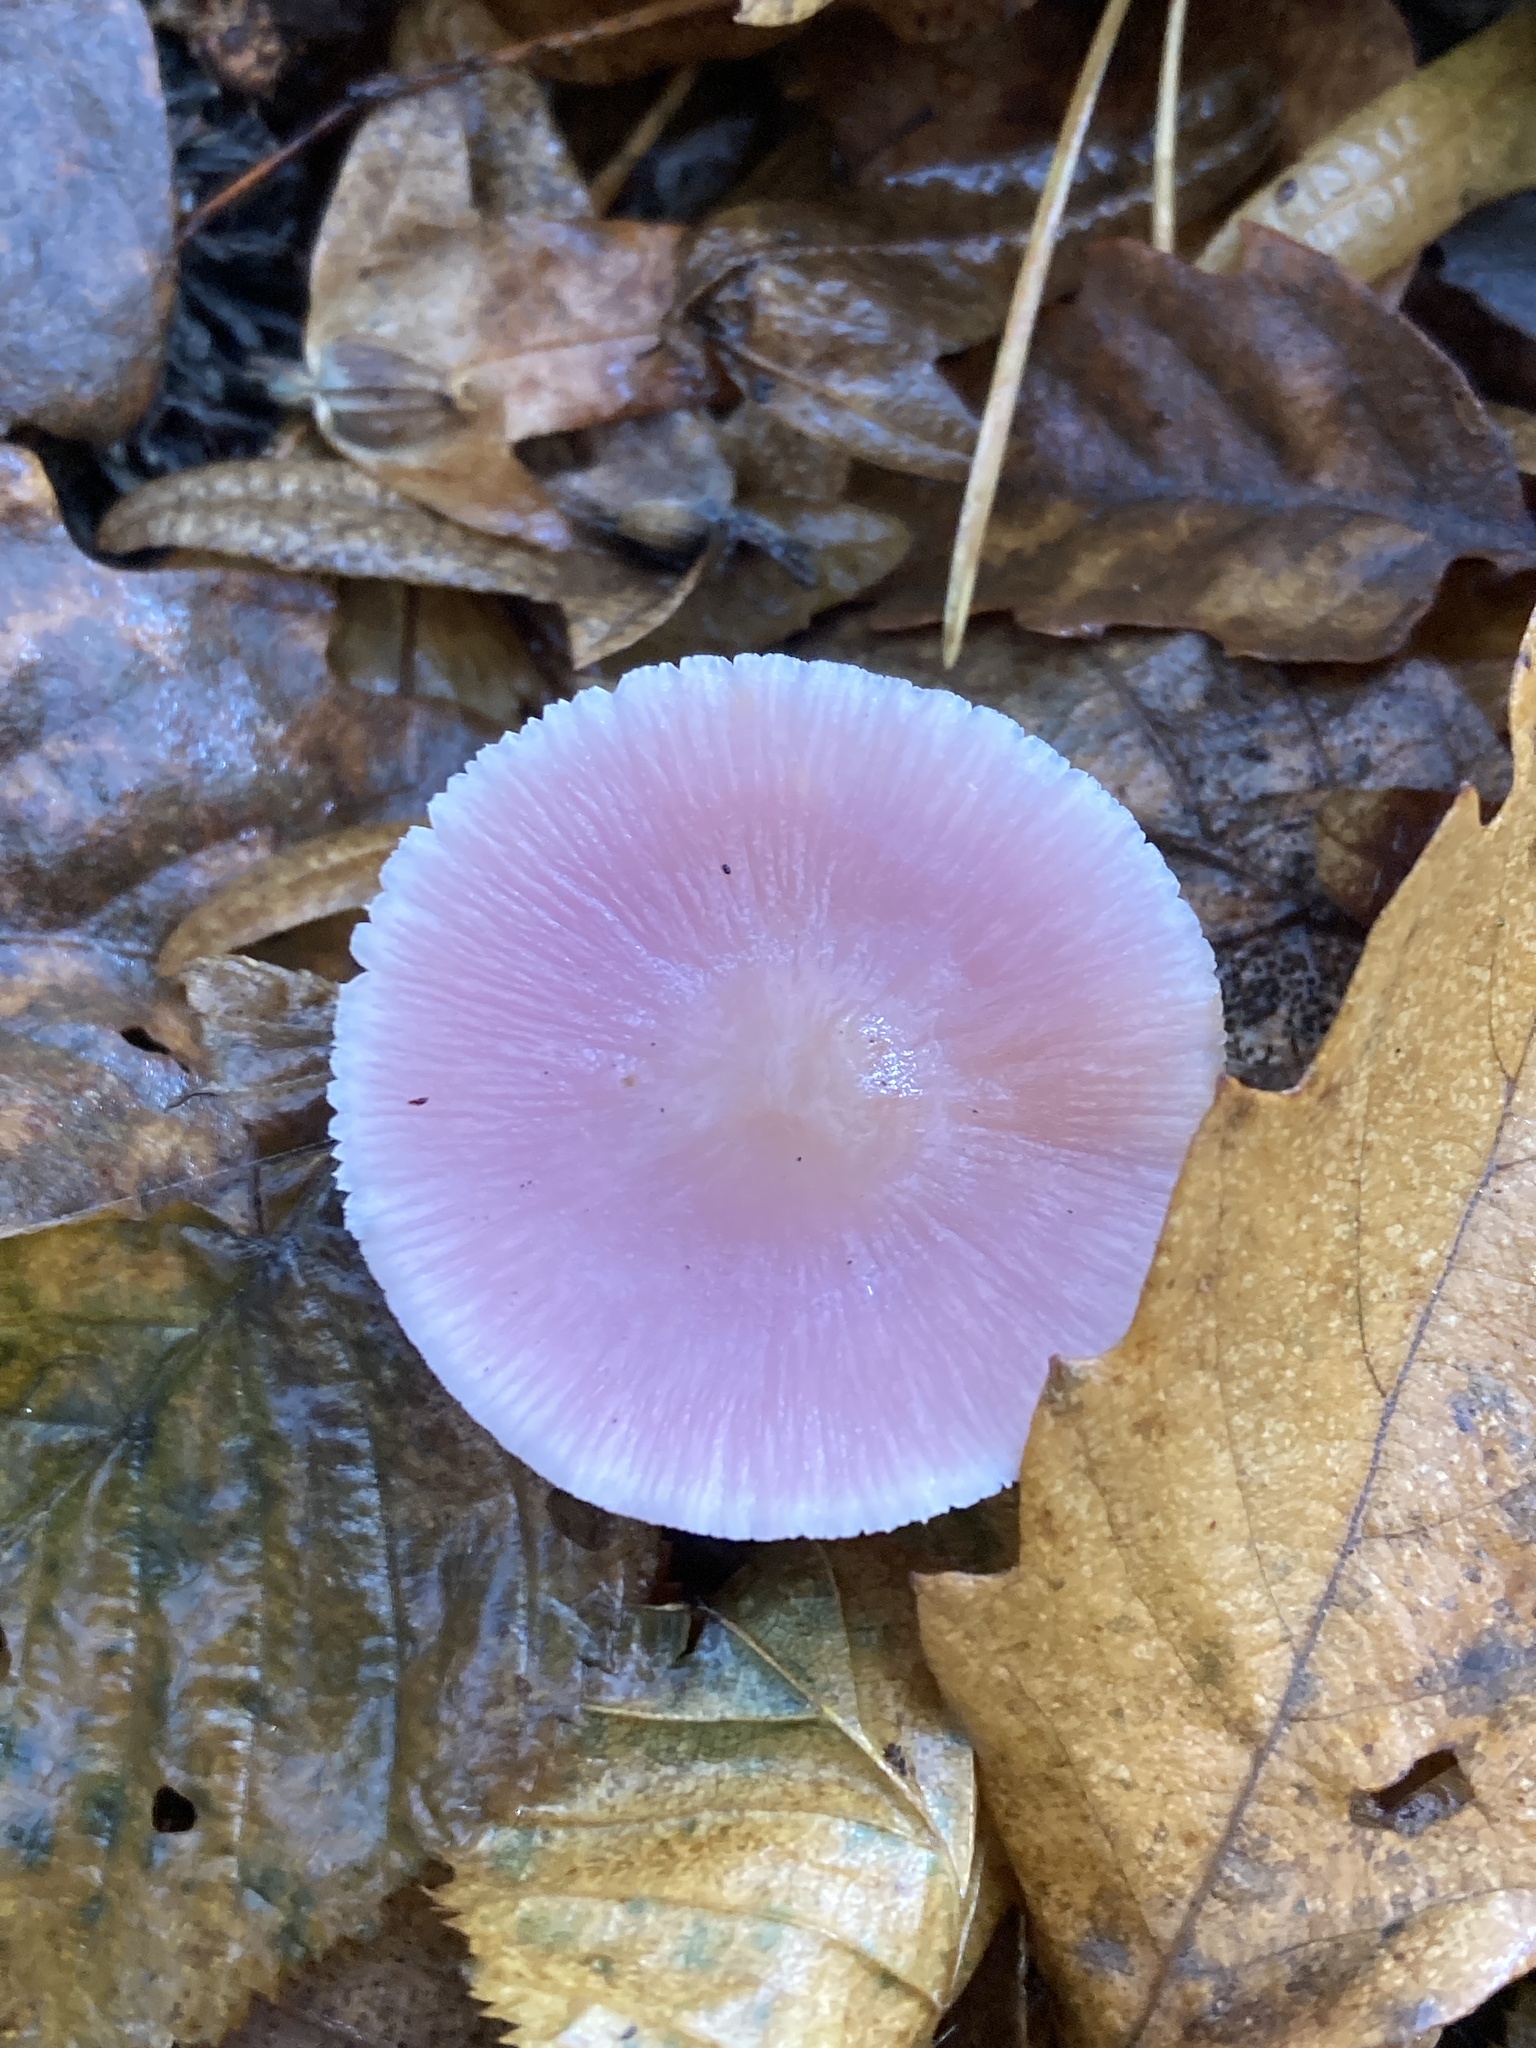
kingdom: Fungi
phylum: Basidiomycota
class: Agaricomycetes
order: Agaricales
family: Mycenaceae
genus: Mycena
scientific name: Mycena rosea
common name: Rosy bonnet
